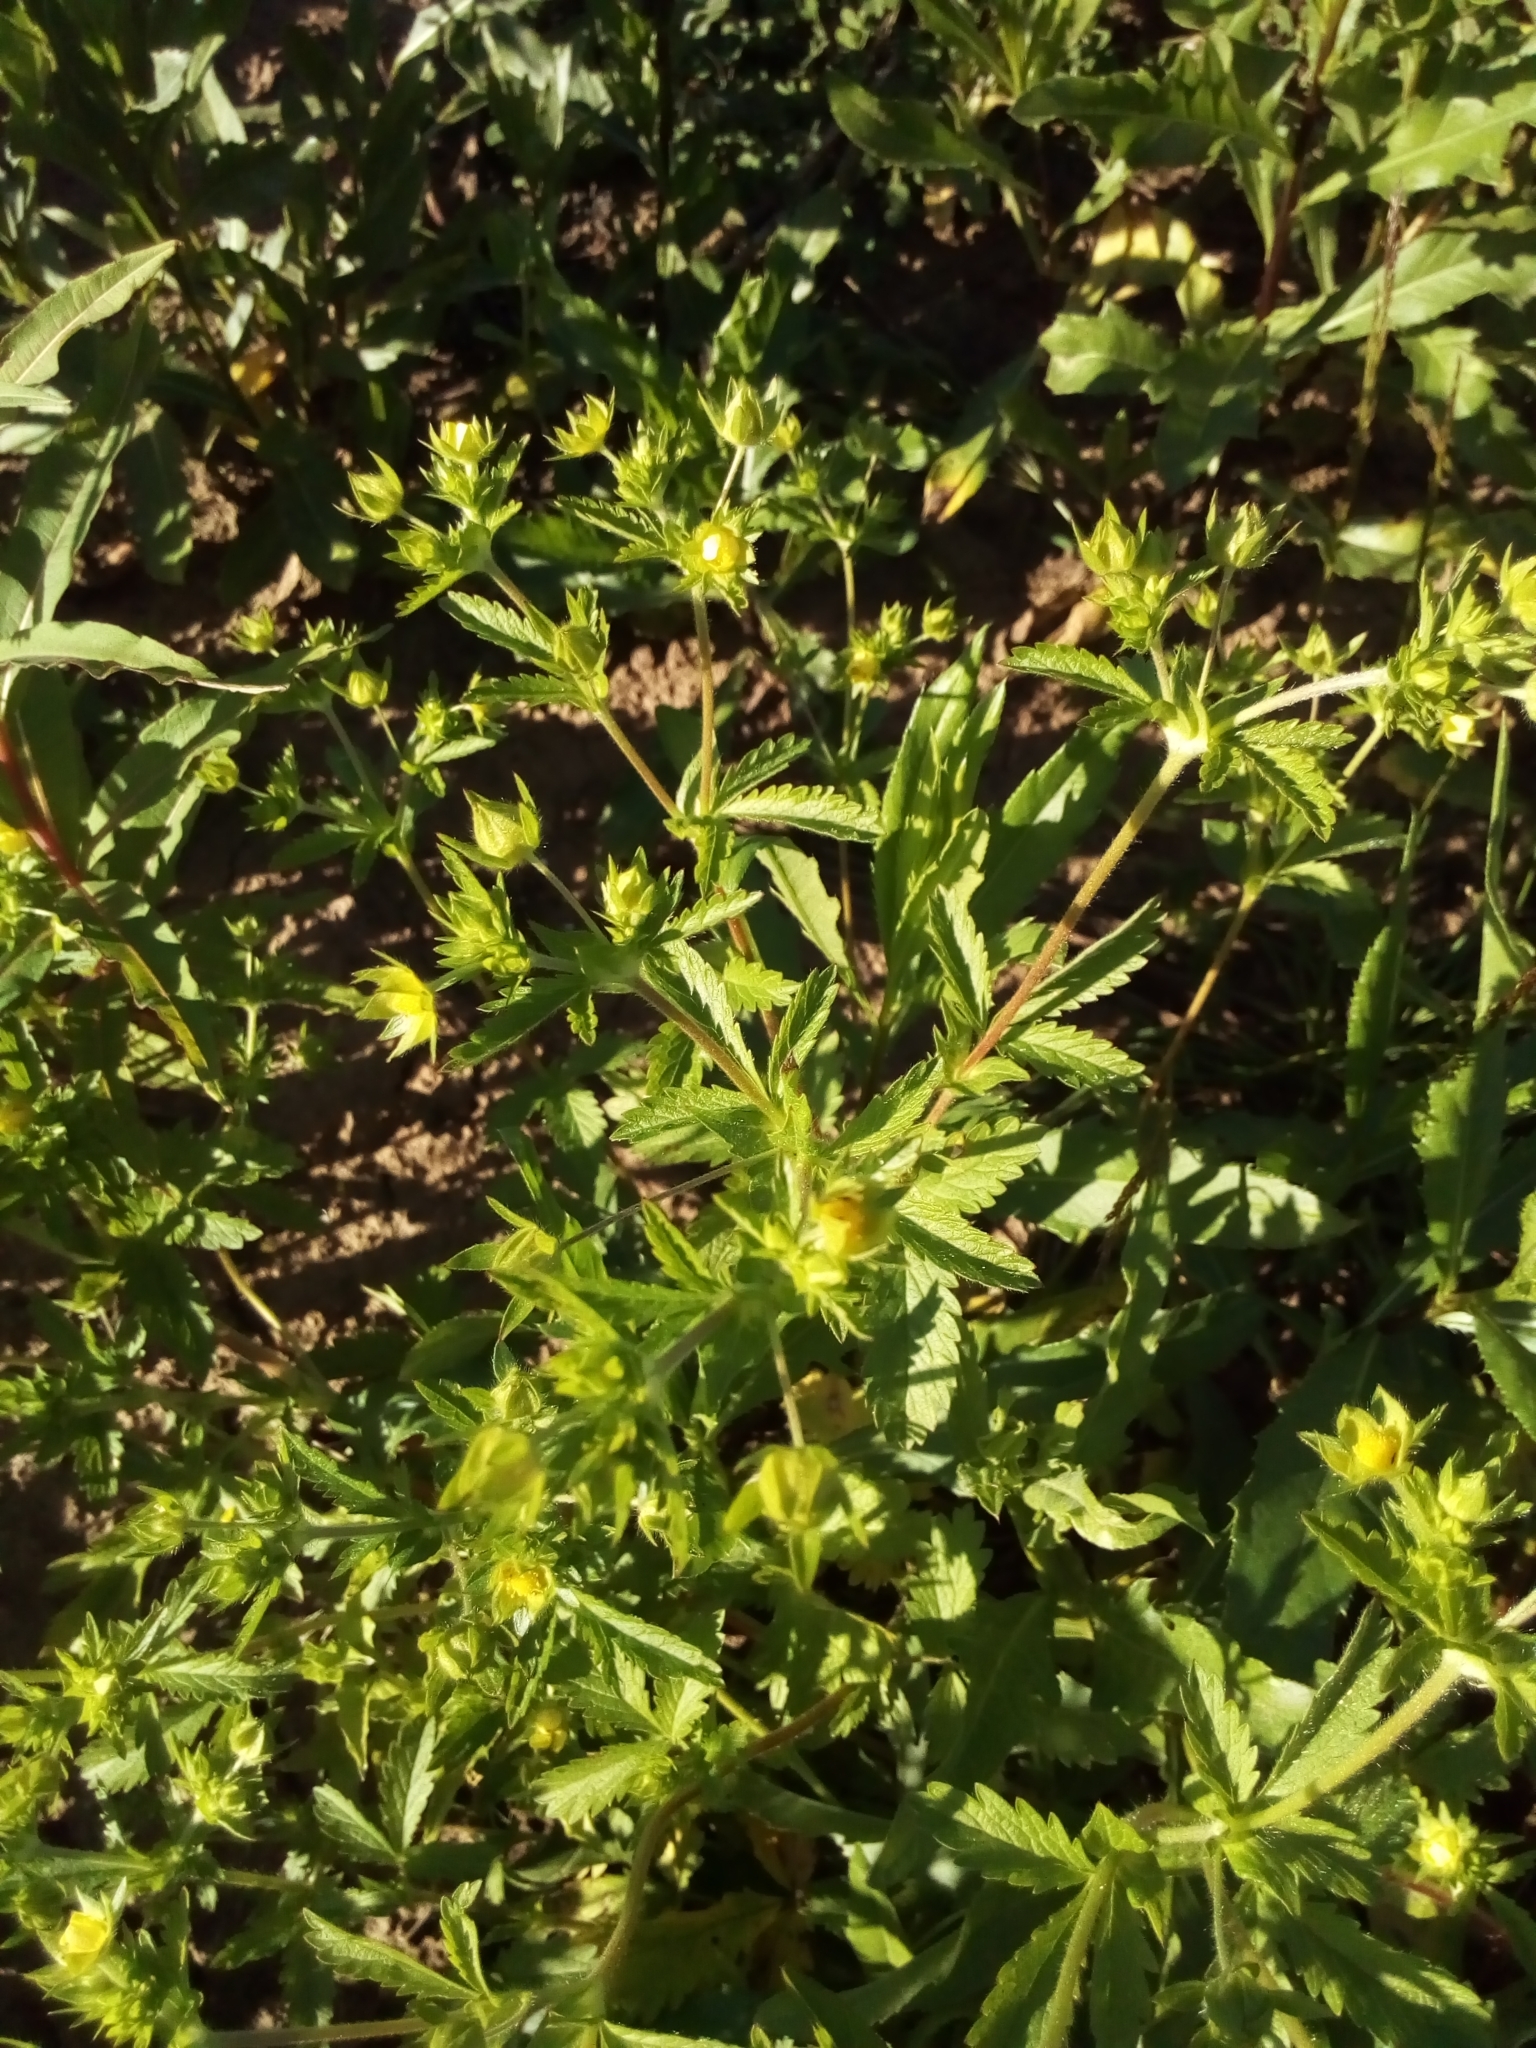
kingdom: Plantae
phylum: Tracheophyta
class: Magnoliopsida
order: Rosales
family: Rosaceae
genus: Potentilla
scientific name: Potentilla norvegica
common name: Ternate-leaved cinquefoil
